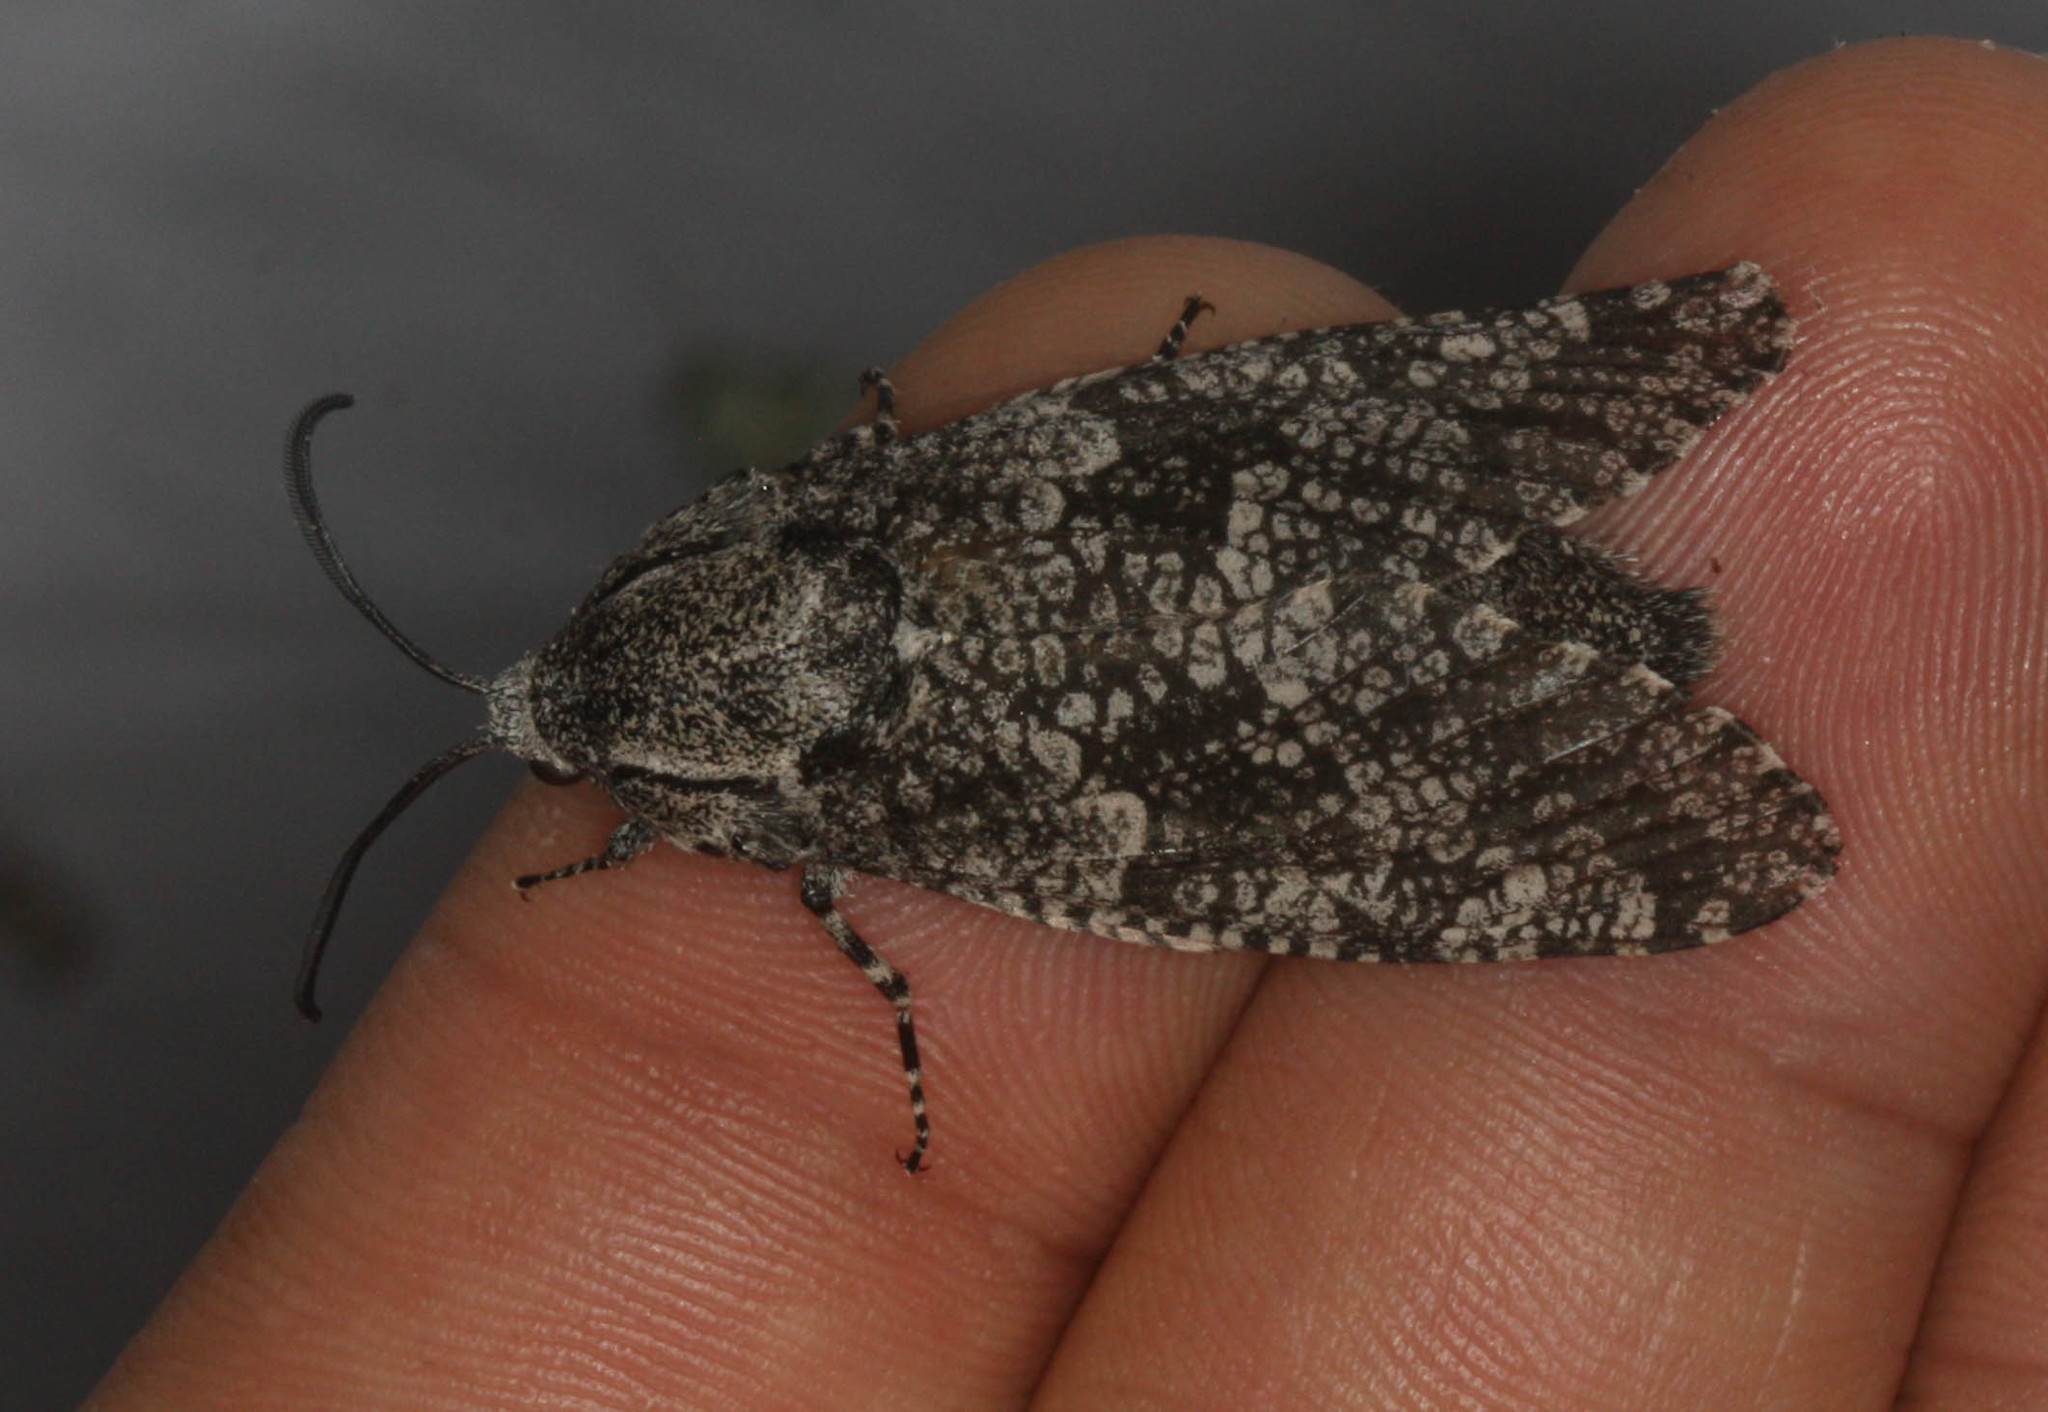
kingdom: Animalia
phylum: Arthropoda
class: Insecta
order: Lepidoptera
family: Cossidae
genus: Prionoxystus
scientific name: Prionoxystus robiniae
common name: Carpenterworm
